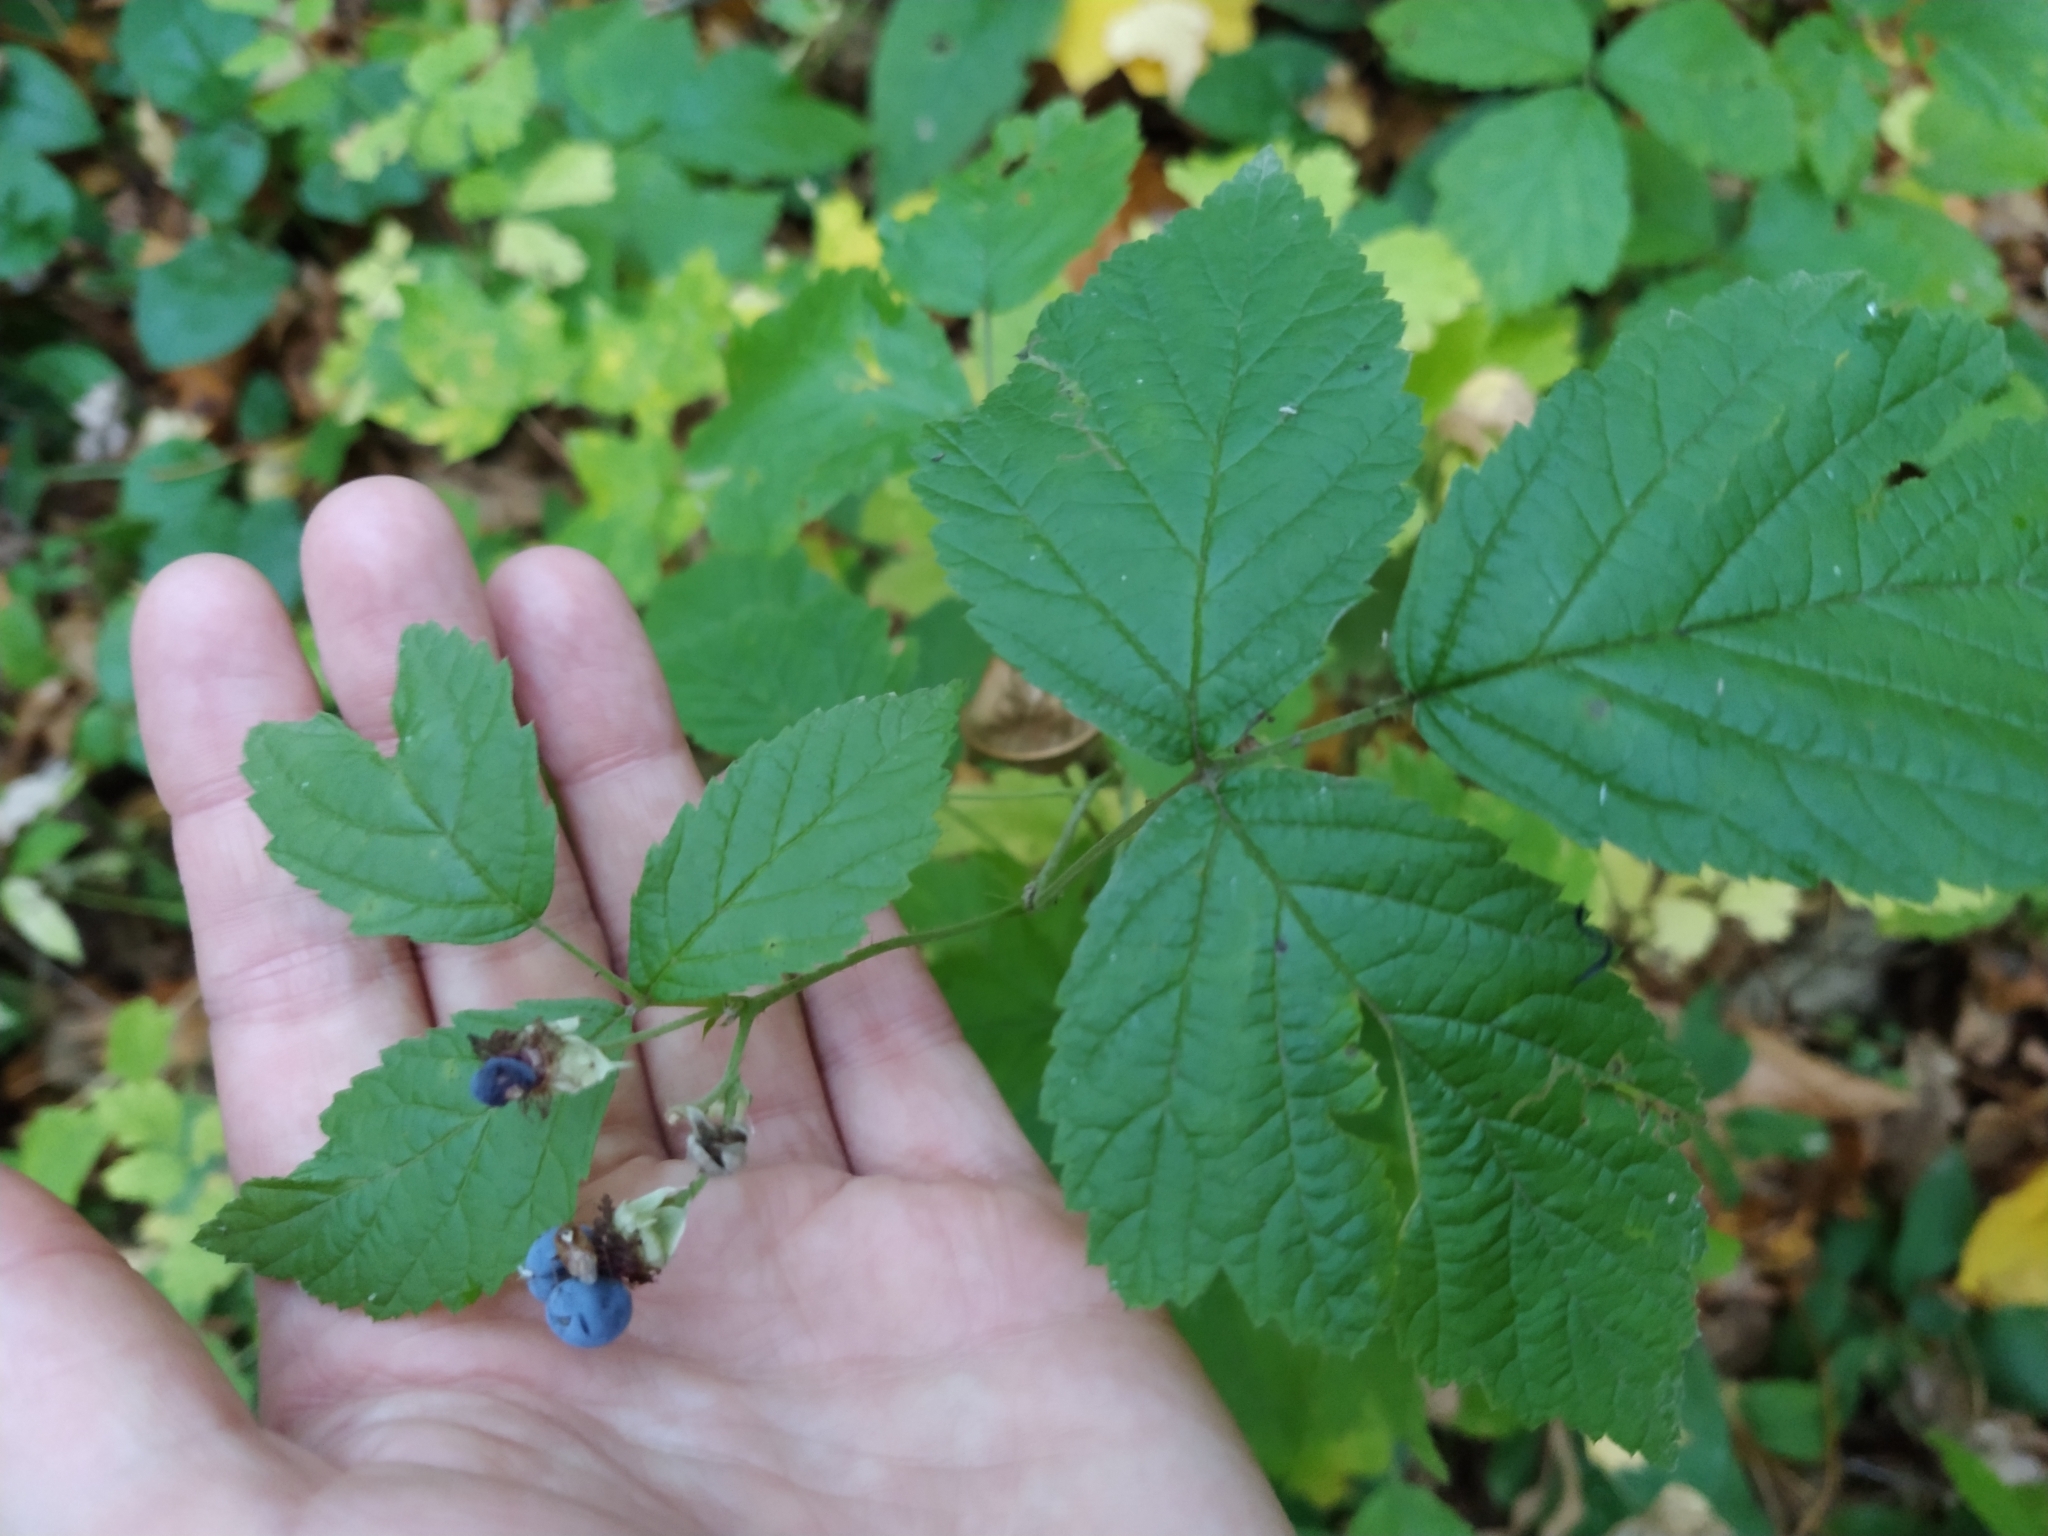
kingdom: Plantae
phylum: Tracheophyta
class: Magnoliopsida
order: Rosales
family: Rosaceae
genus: Rubus
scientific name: Rubus caesius
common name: Dewberry
